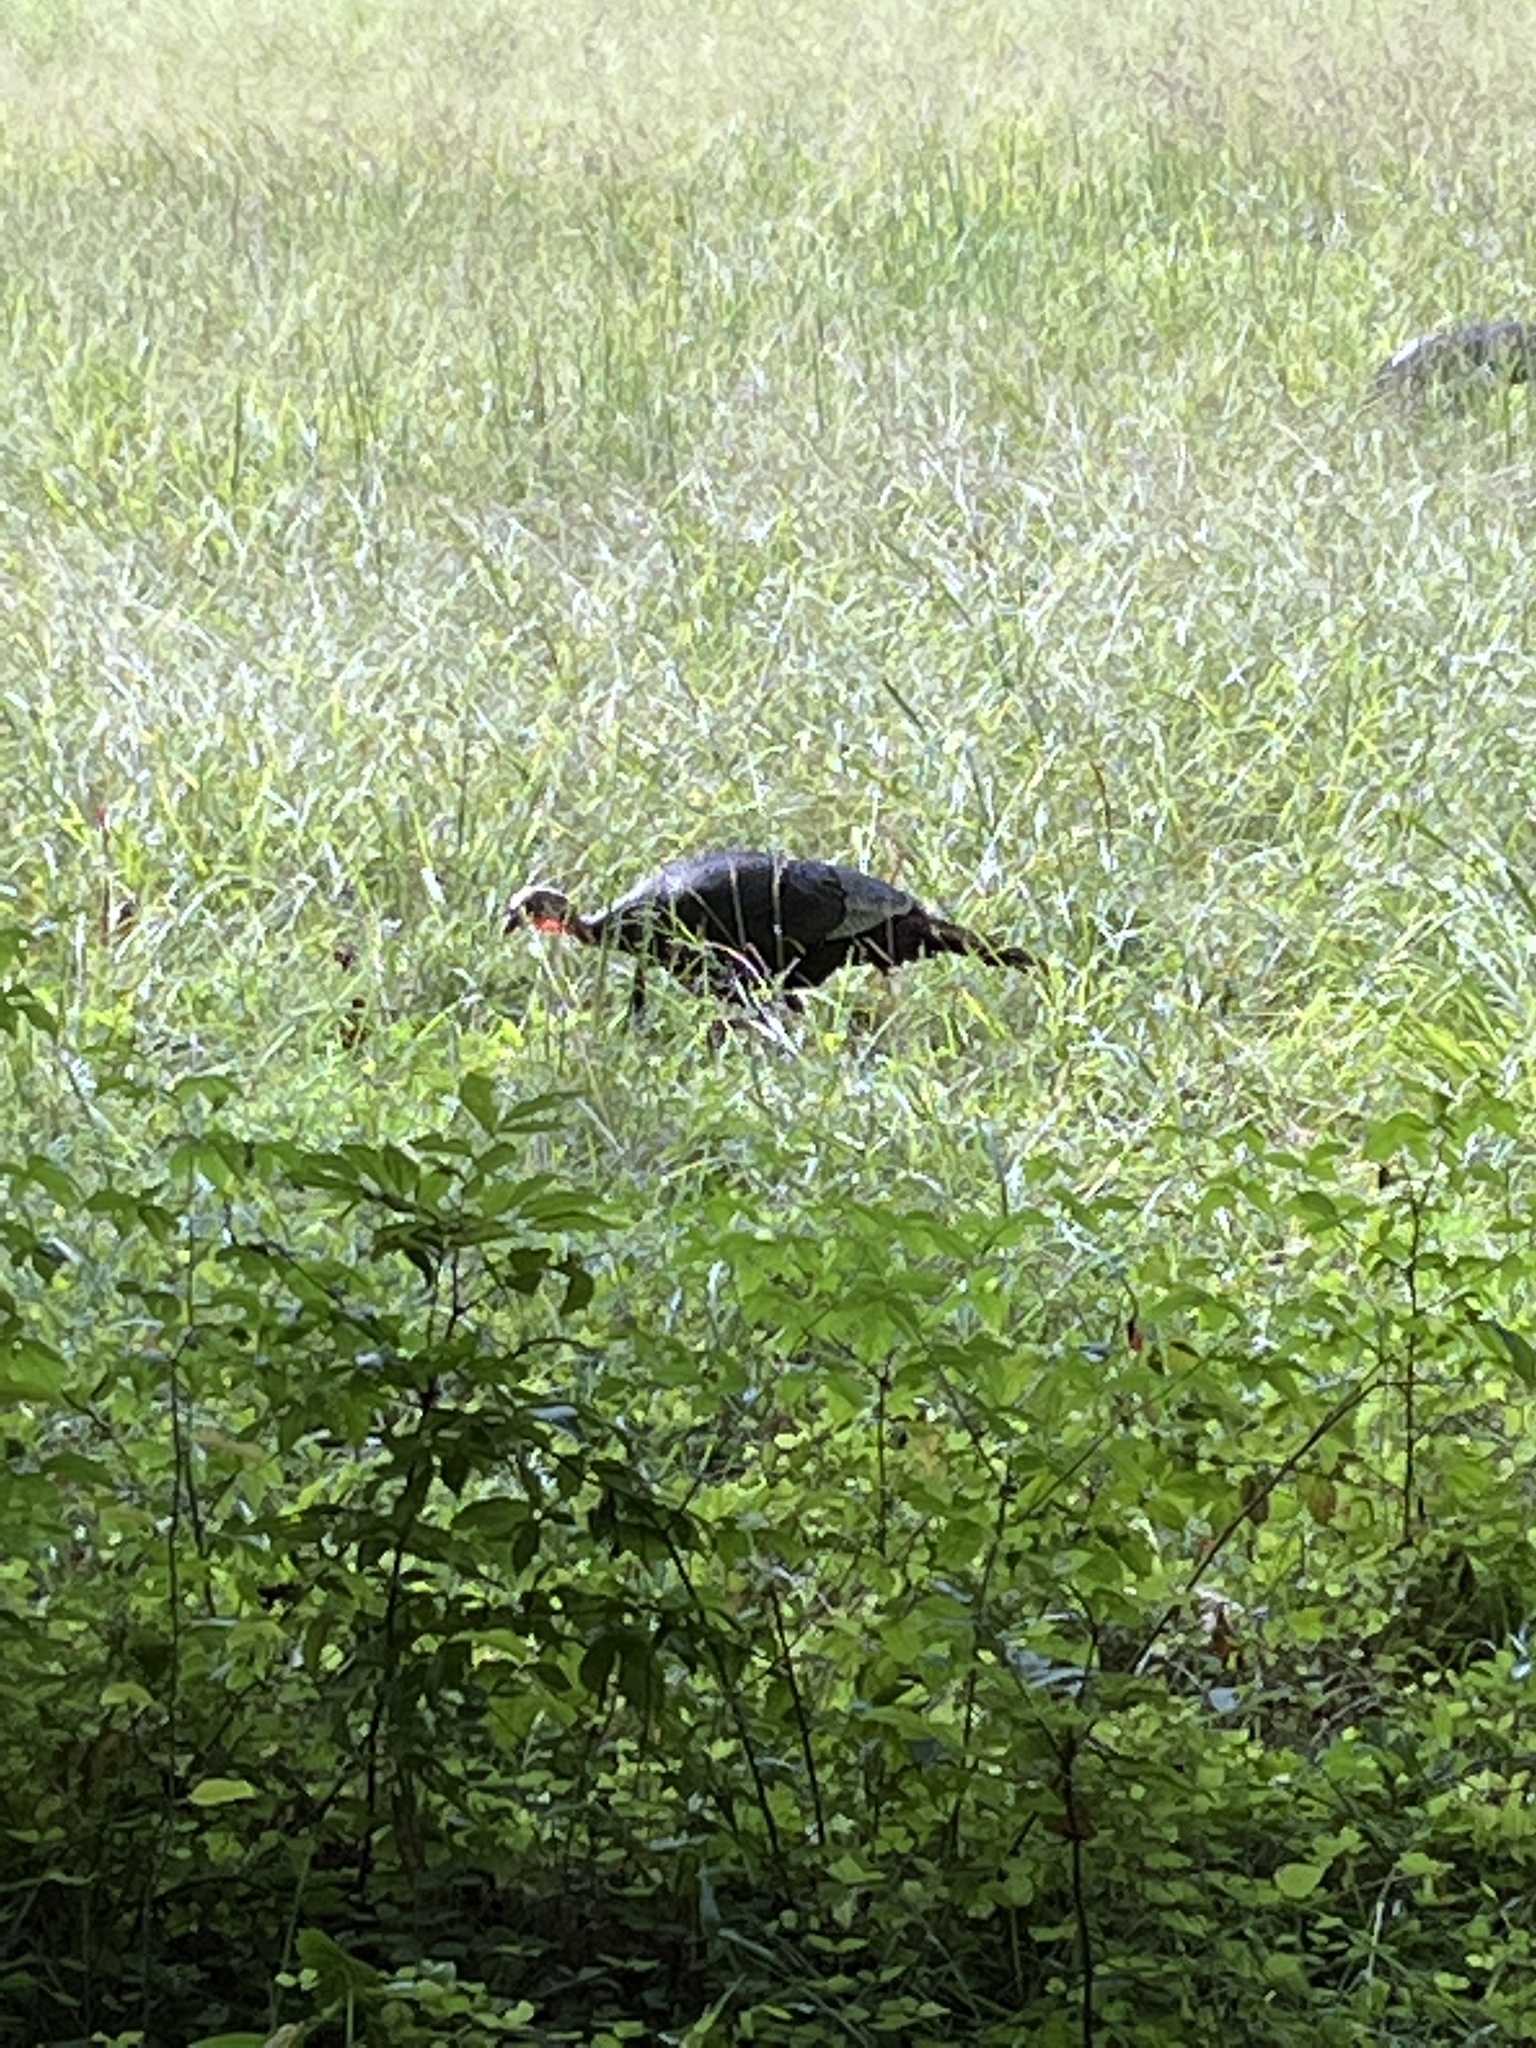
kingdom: Animalia
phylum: Chordata
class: Aves
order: Galliformes
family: Phasianidae
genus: Meleagris
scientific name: Meleagris gallopavo
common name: Wild turkey
